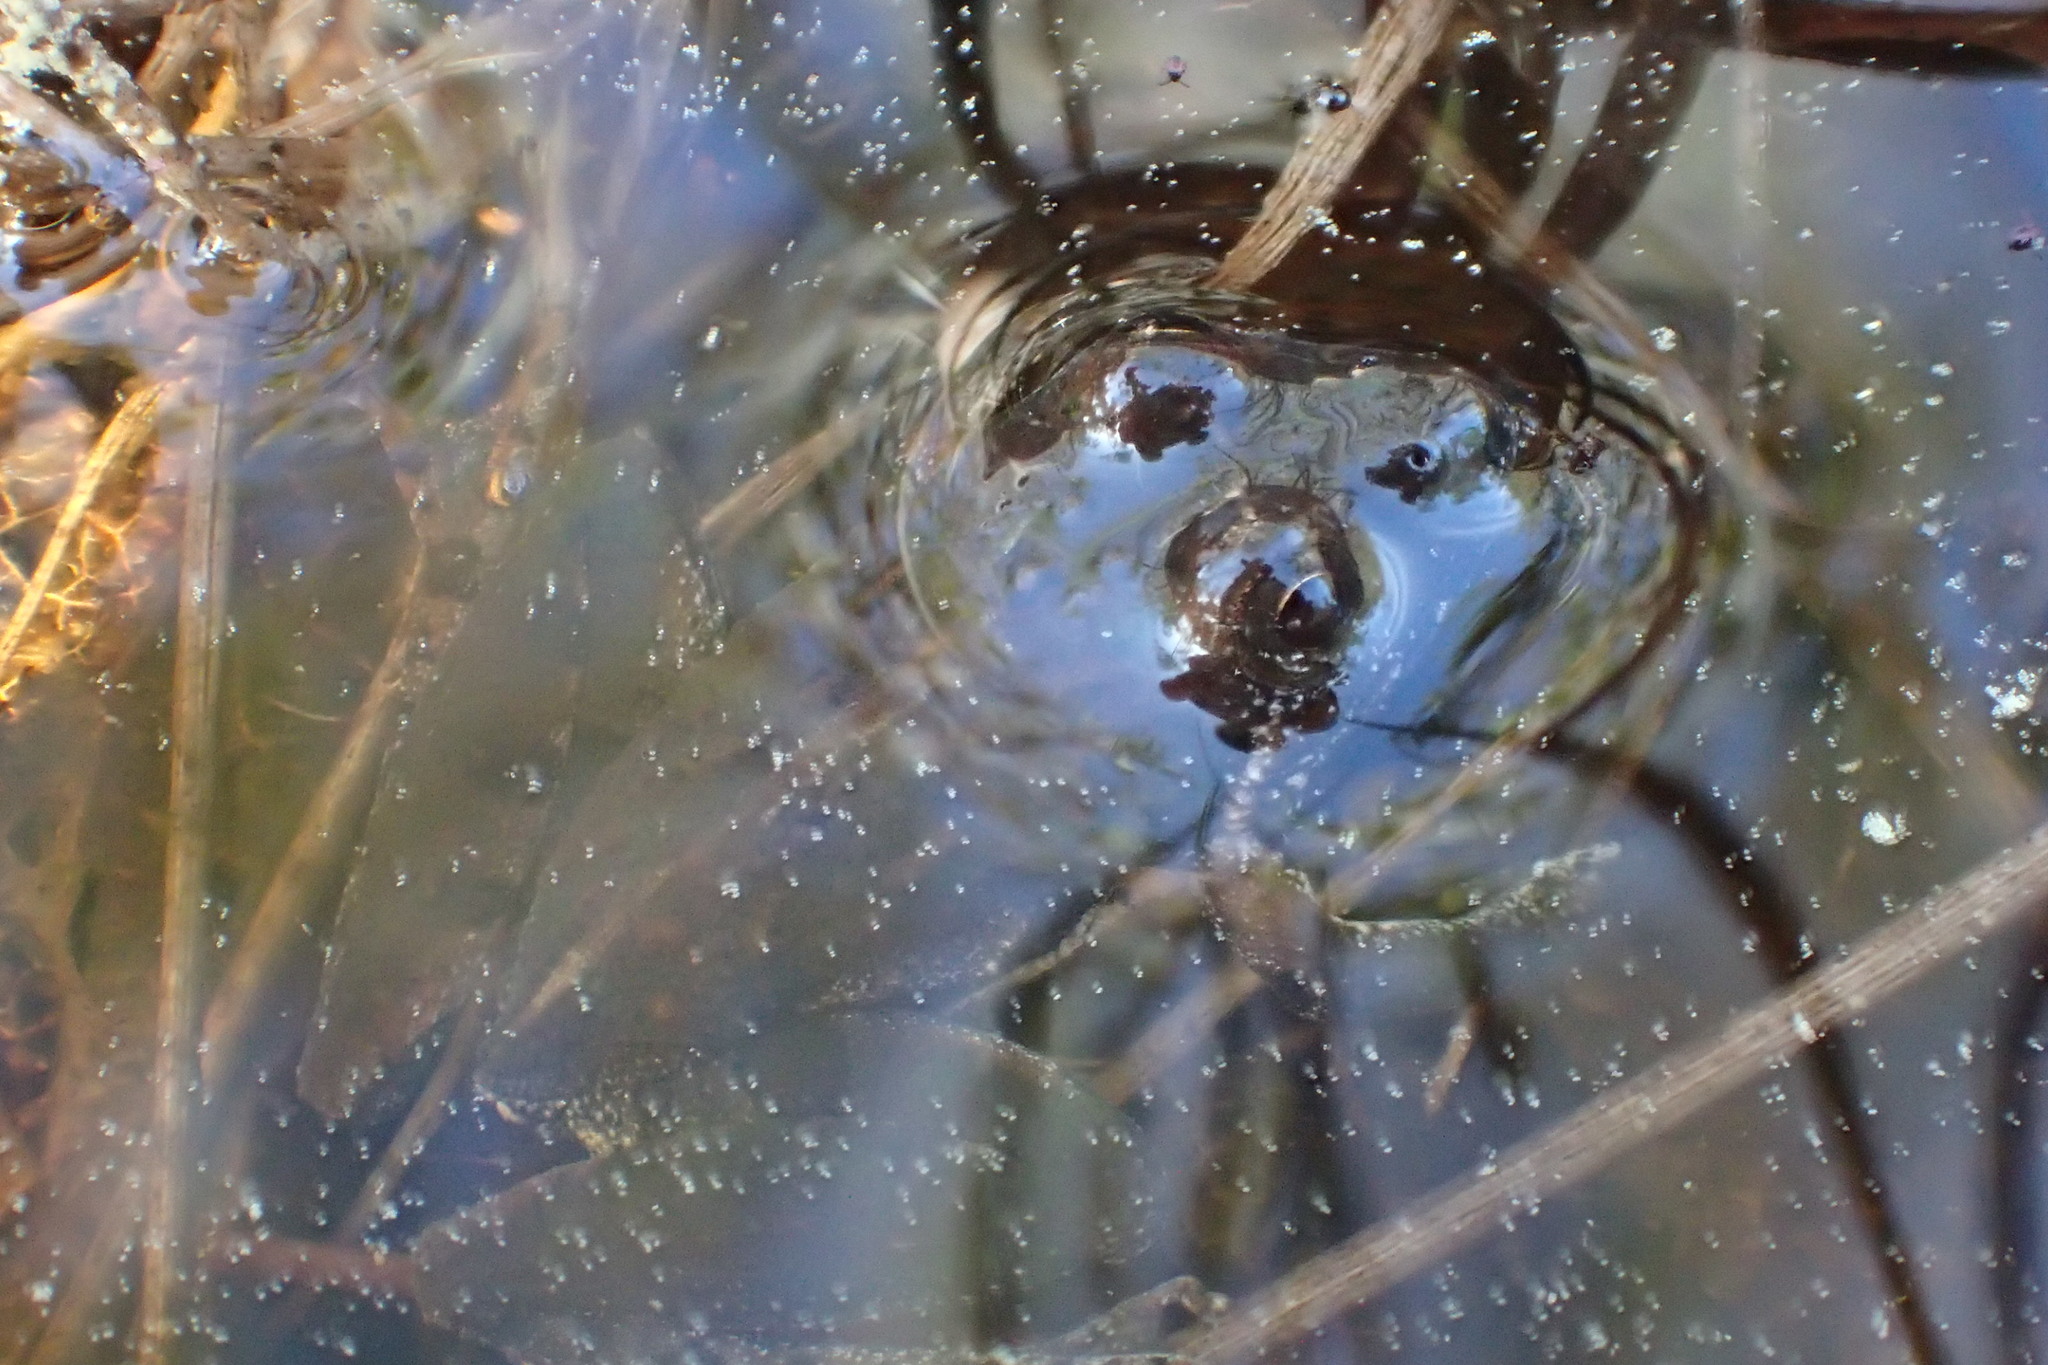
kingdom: Animalia
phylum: Chordata
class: Amphibia
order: Anura
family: Hylidae
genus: Acris
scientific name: Acris gryllus
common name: Southern cricket frog
